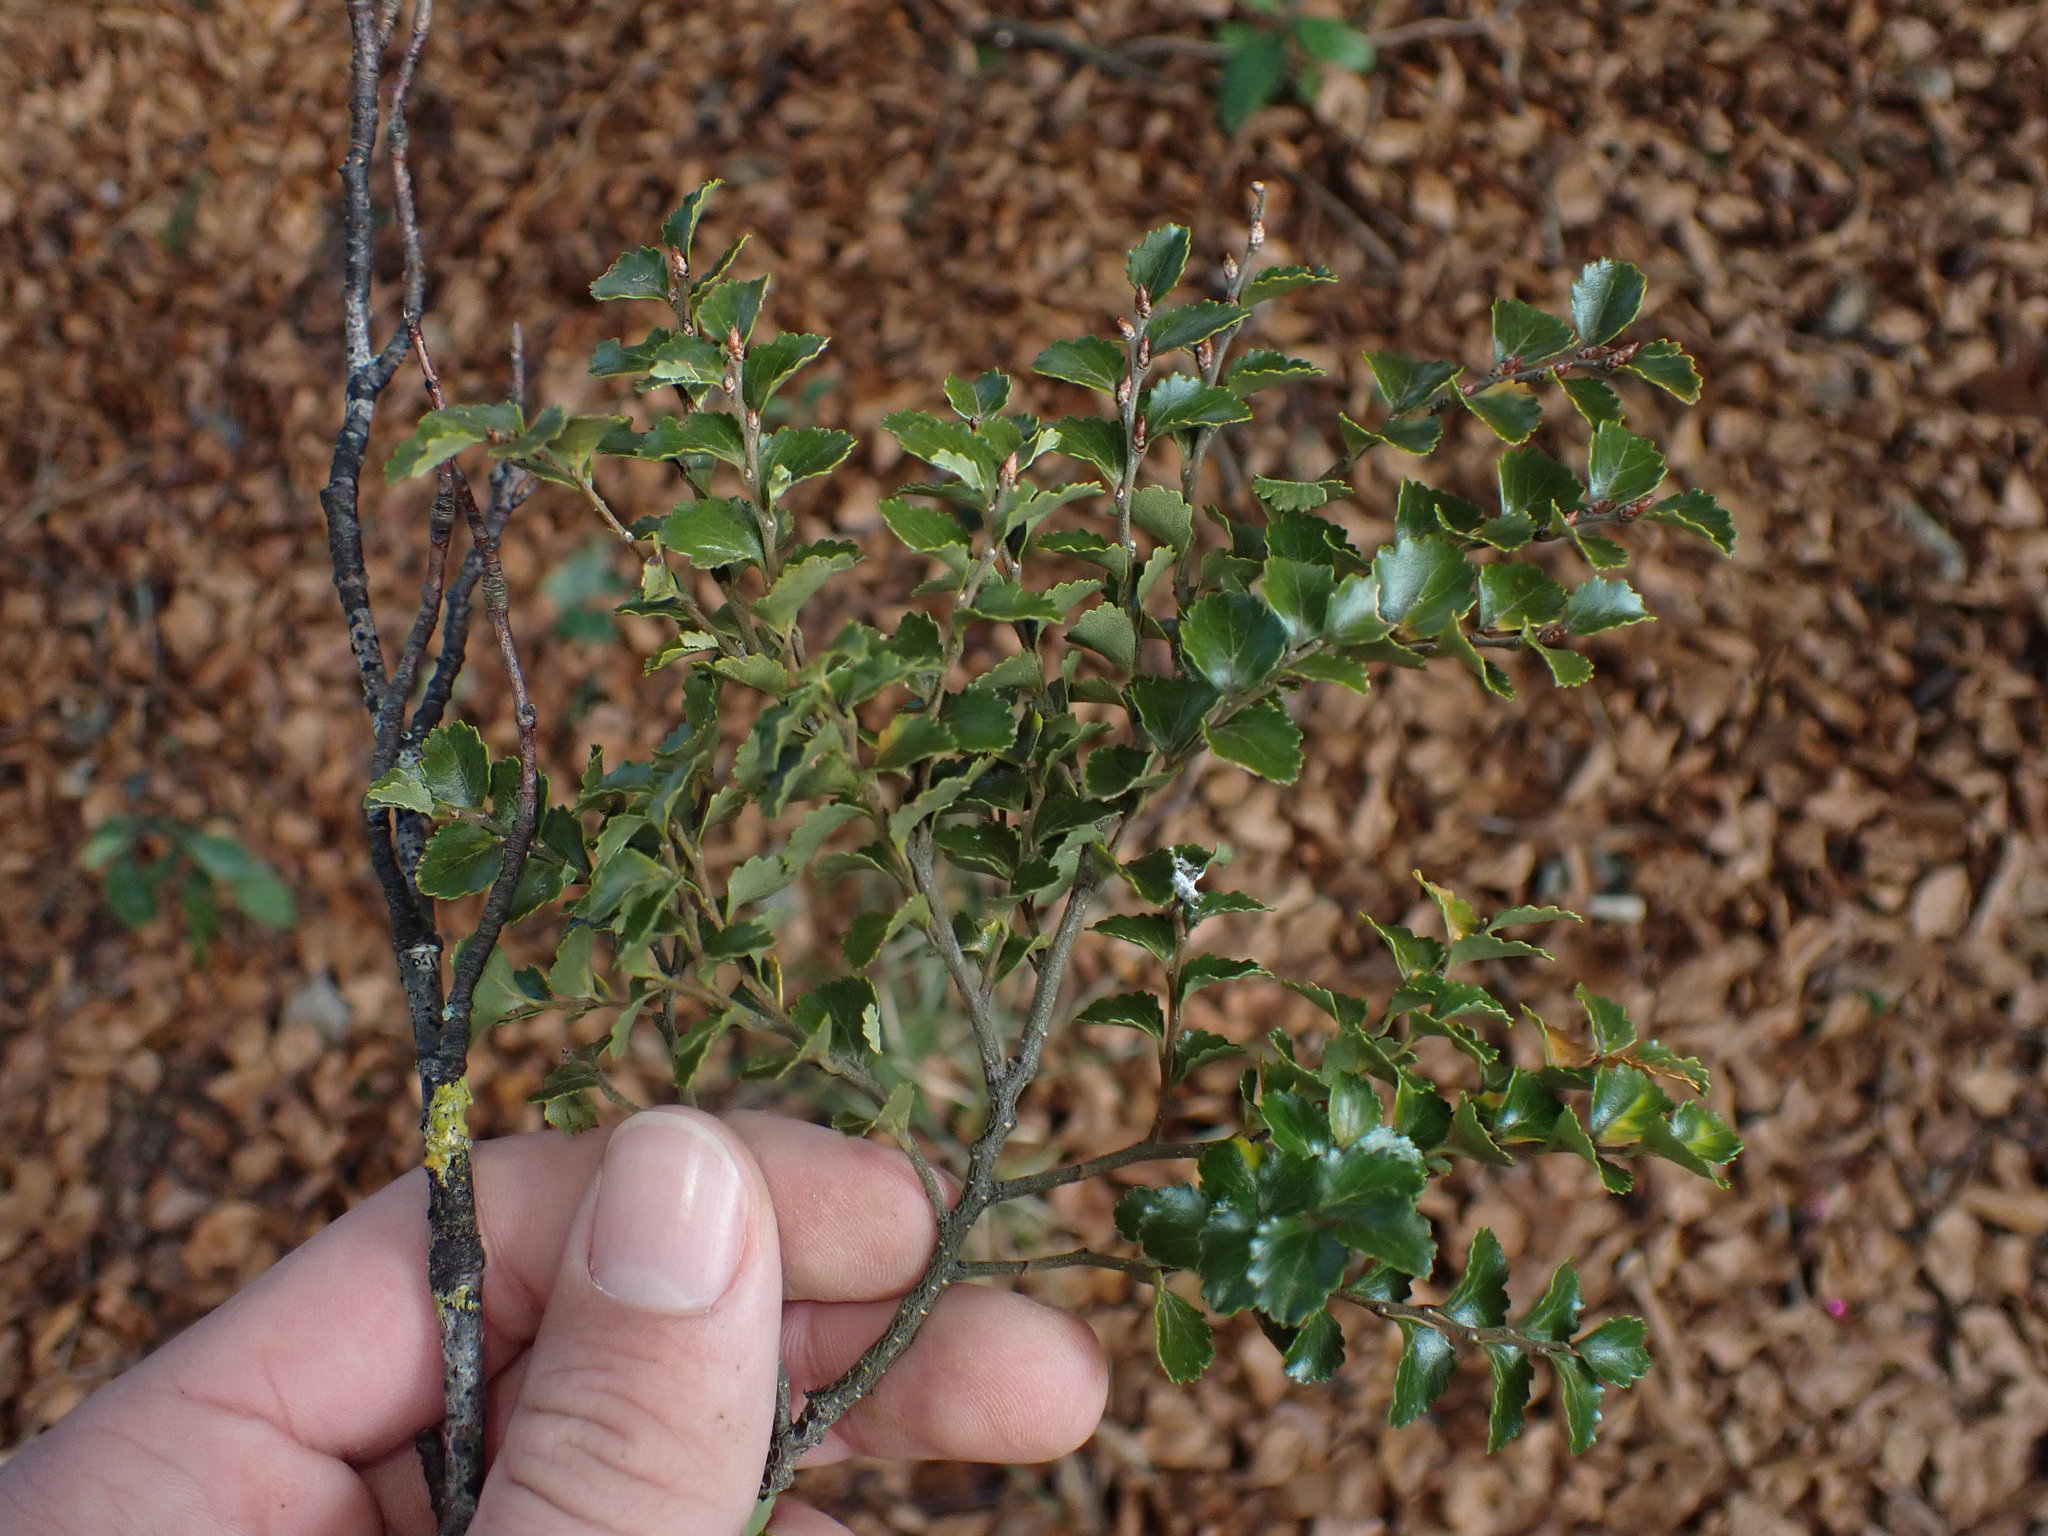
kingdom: Plantae
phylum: Tracheophyta
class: Magnoliopsida
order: Fagales
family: Nothofagaceae
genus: Nothofagus
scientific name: Nothofagus menziesii
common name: Silver beech
